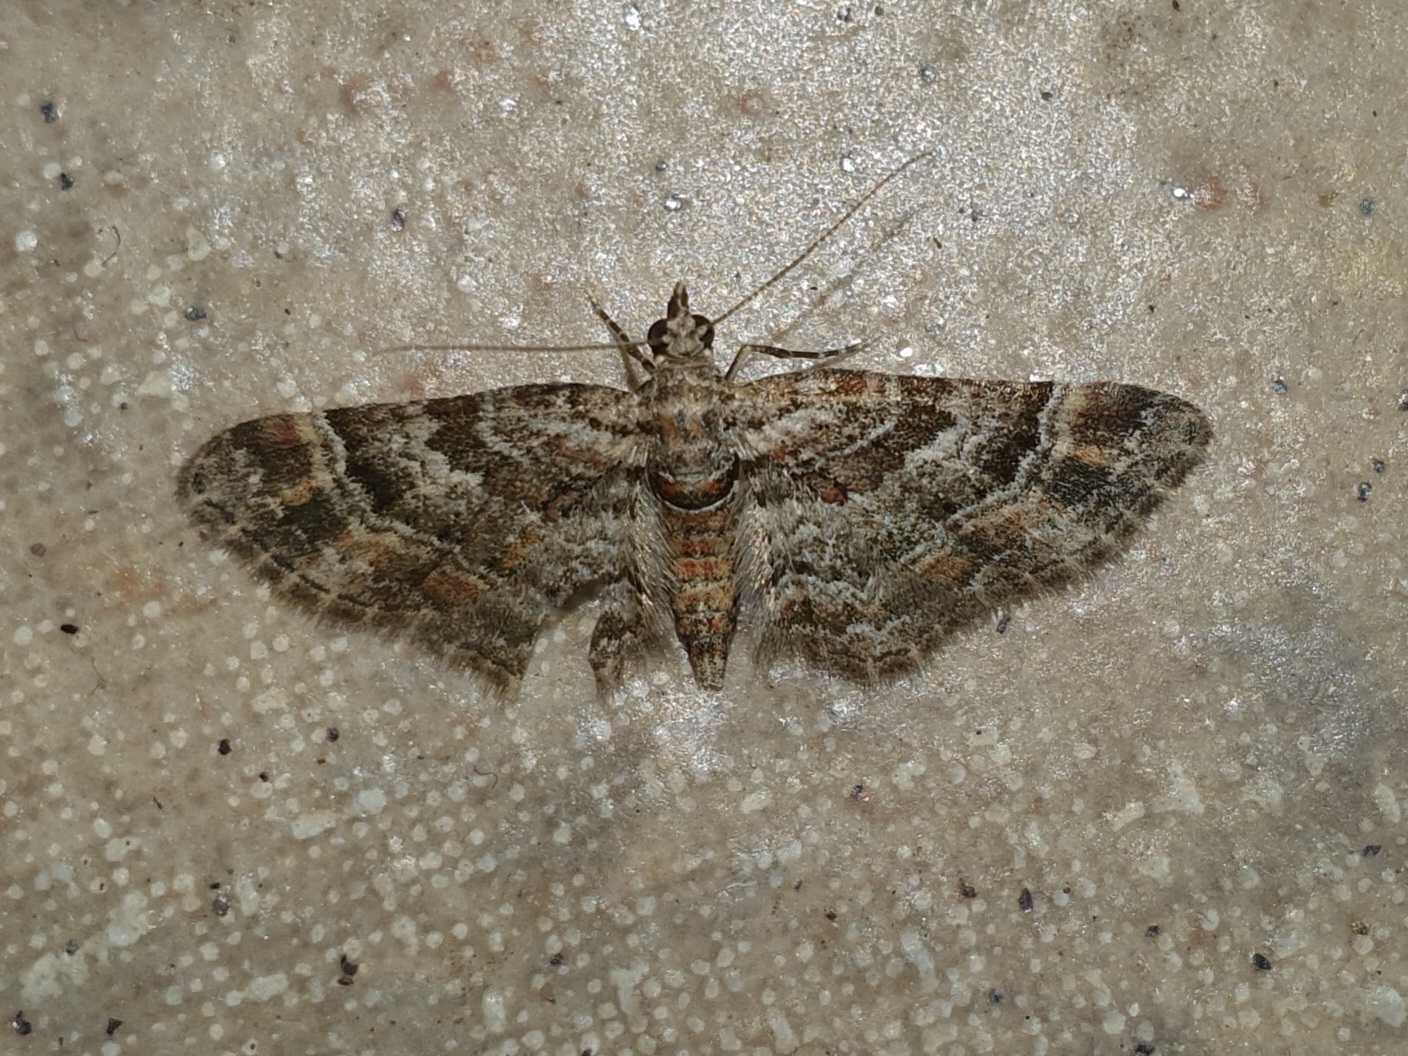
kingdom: Animalia
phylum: Arthropoda
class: Insecta
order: Lepidoptera
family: Geometridae
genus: Gymnoscelis
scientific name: Gymnoscelis rufifasciata
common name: Double-striped pug
